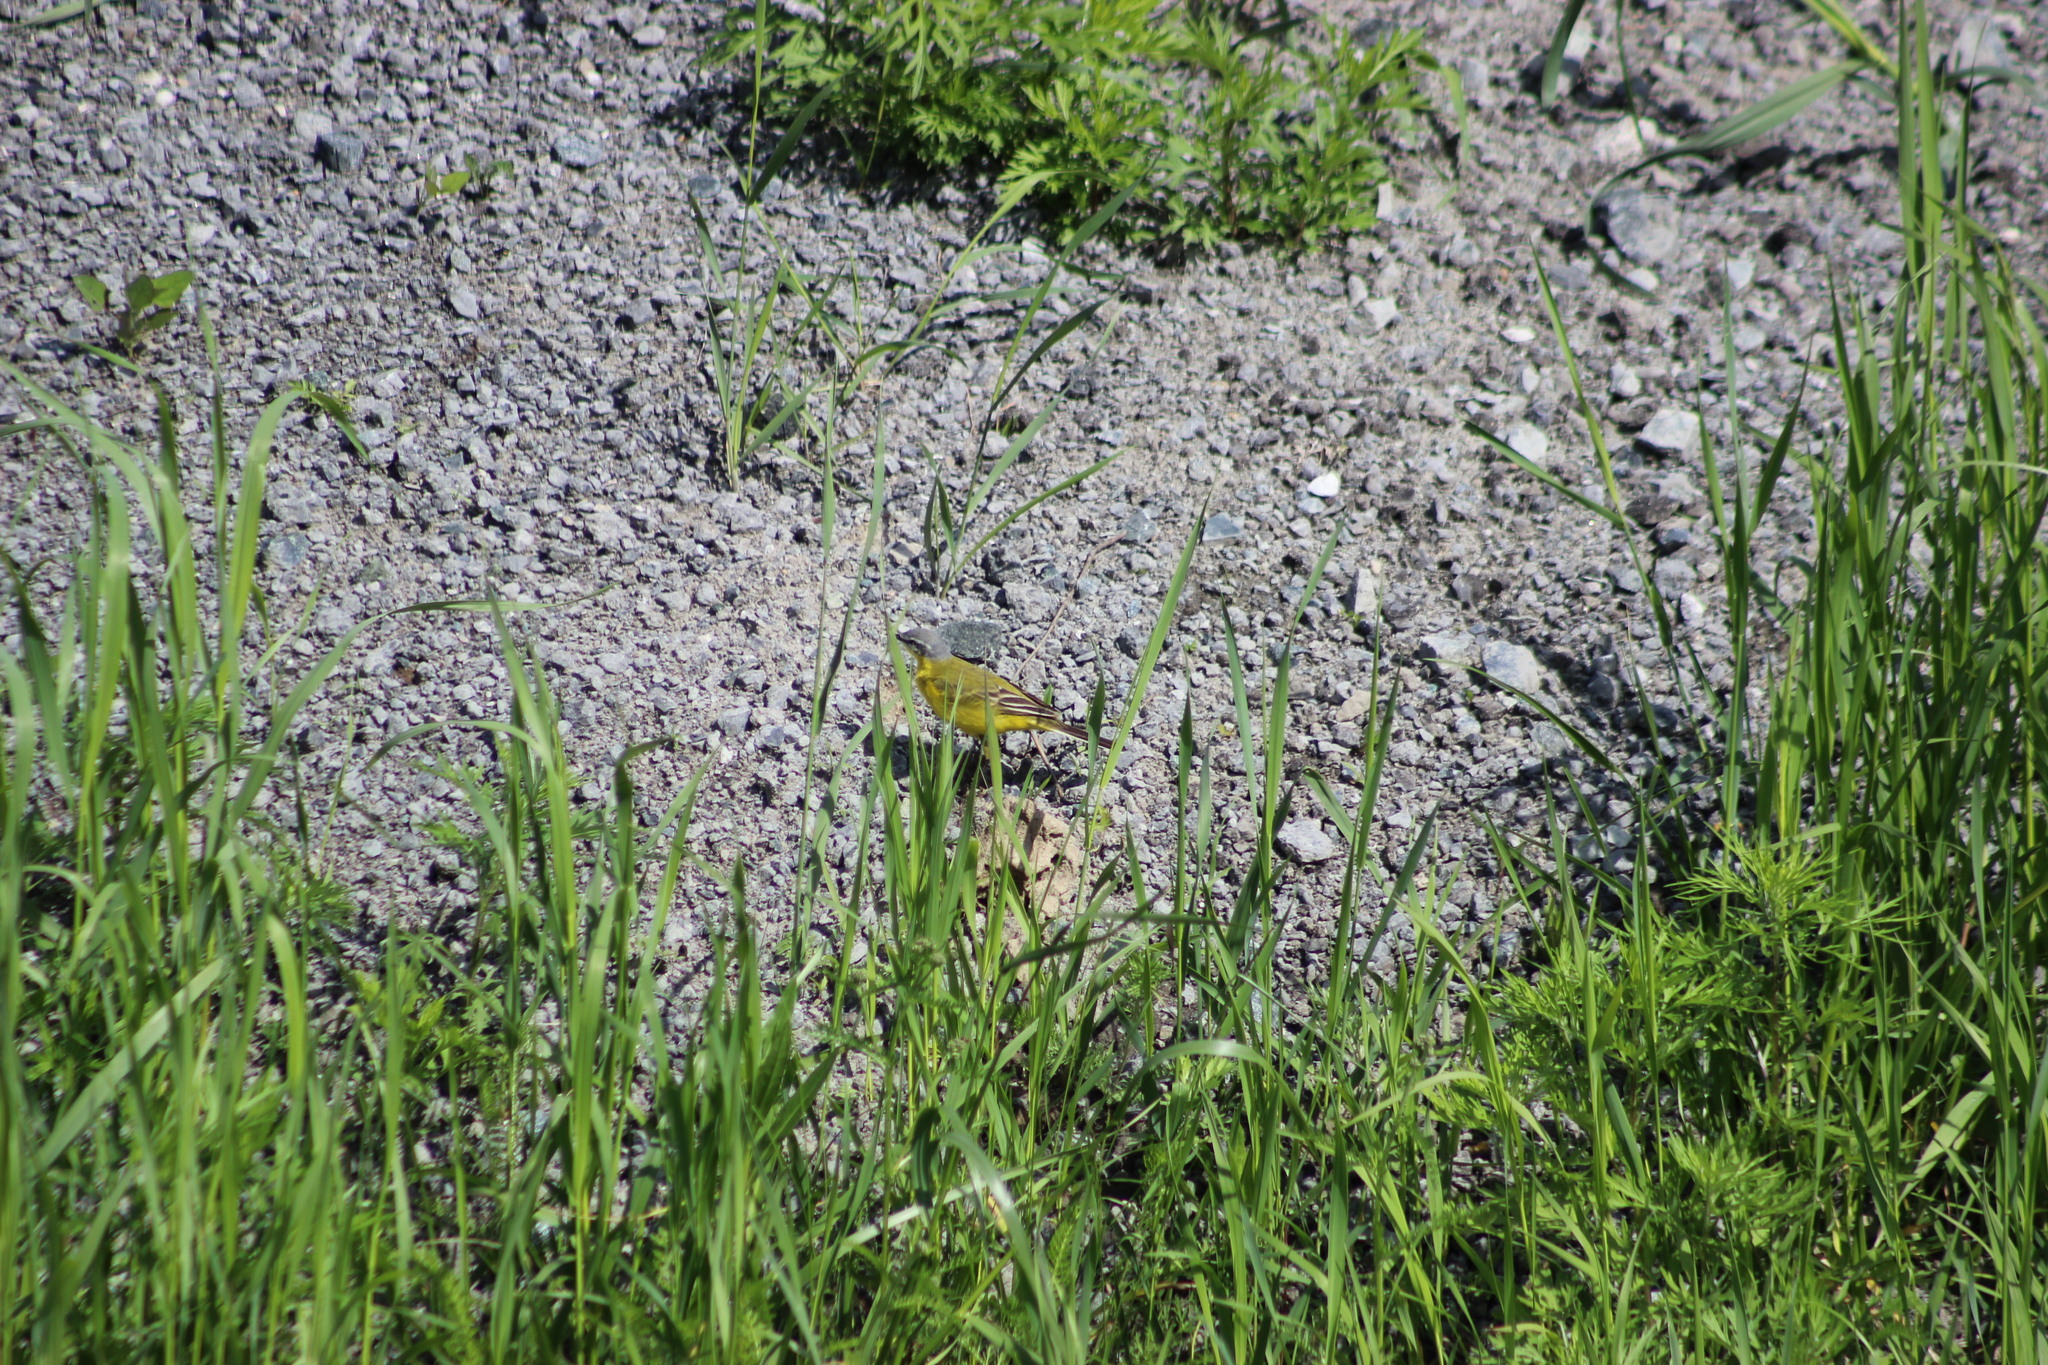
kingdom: Animalia
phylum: Chordata
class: Aves
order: Passeriformes
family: Motacillidae
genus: Motacilla
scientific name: Motacilla flava
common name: Western yellow wagtail
